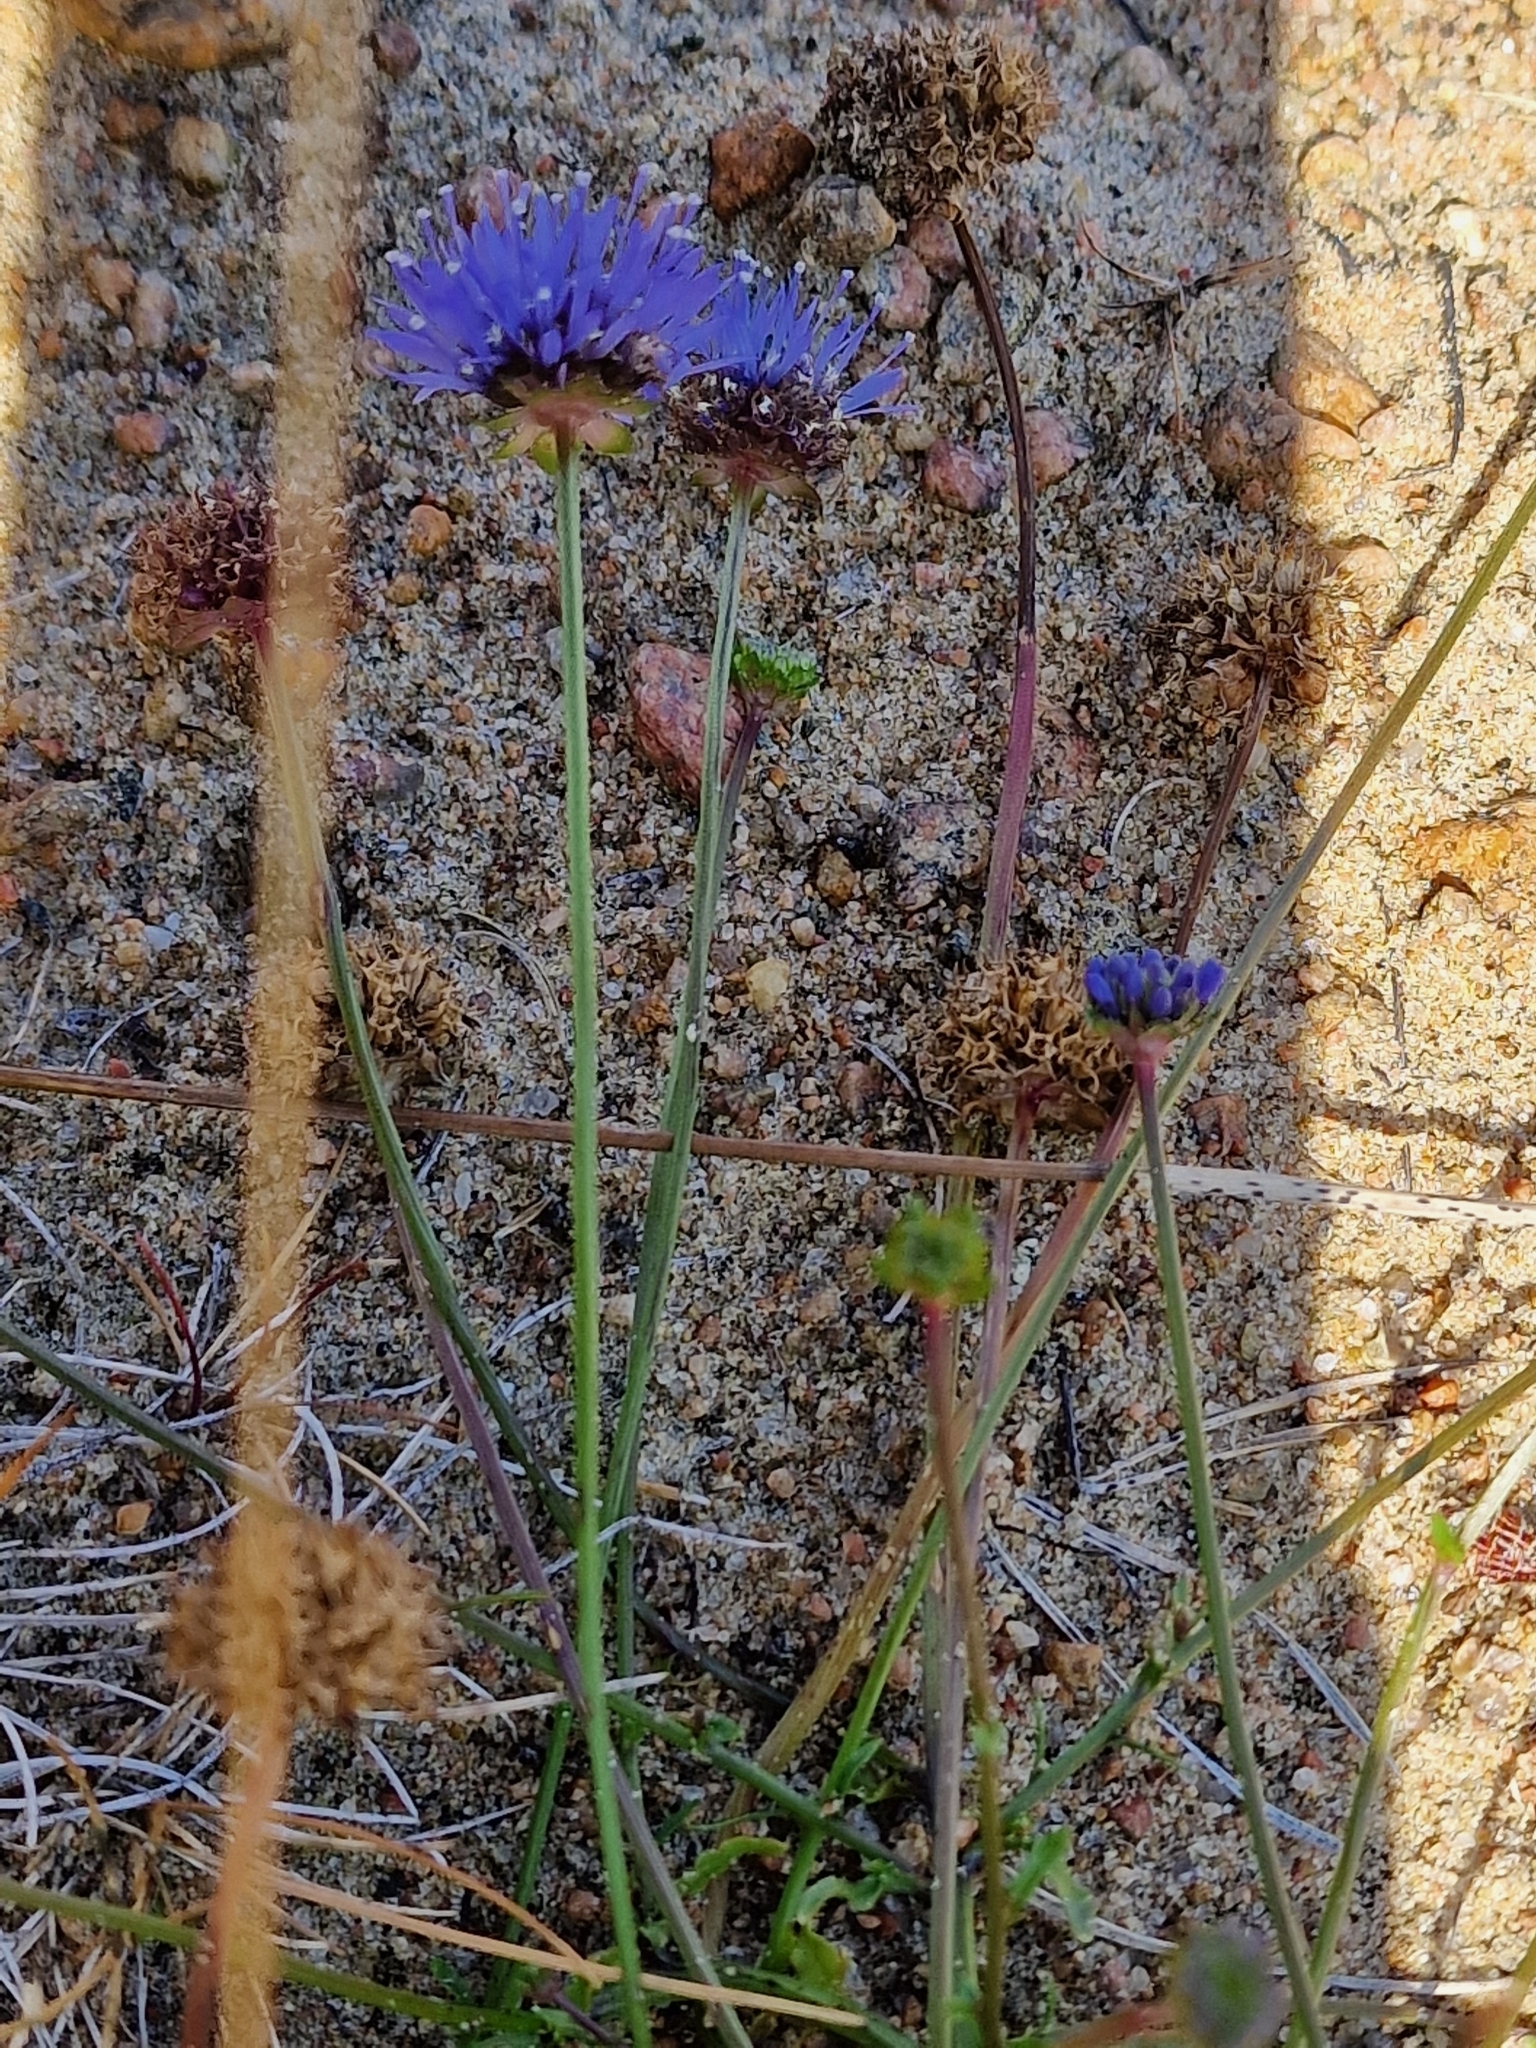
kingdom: Plantae
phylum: Tracheophyta
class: Magnoliopsida
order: Asterales
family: Campanulaceae
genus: Jasione
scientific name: Jasione montana
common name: Sheep's-bit
